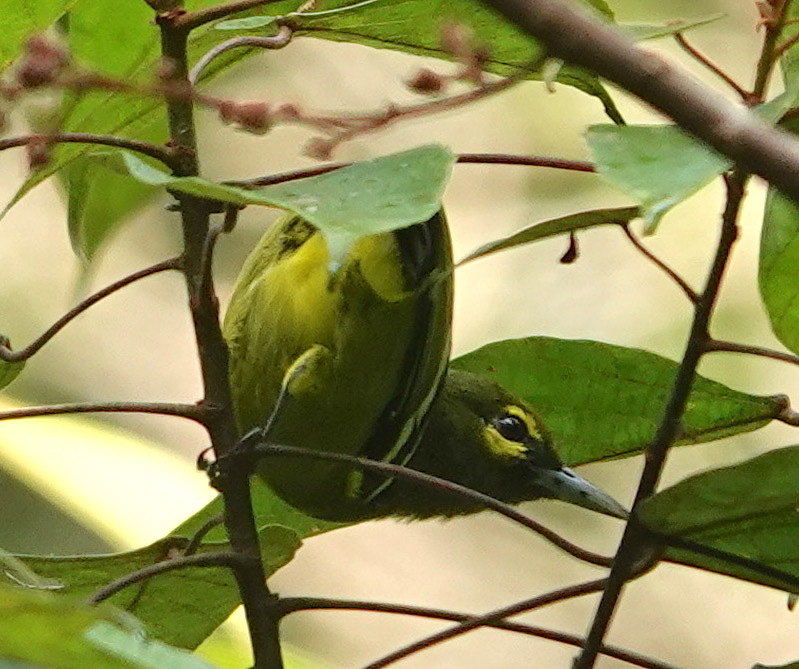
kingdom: Animalia
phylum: Chordata
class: Aves
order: Passeriformes
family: Aegithinidae
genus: Aegithina
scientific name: Aegithina viridissima
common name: Green iora
